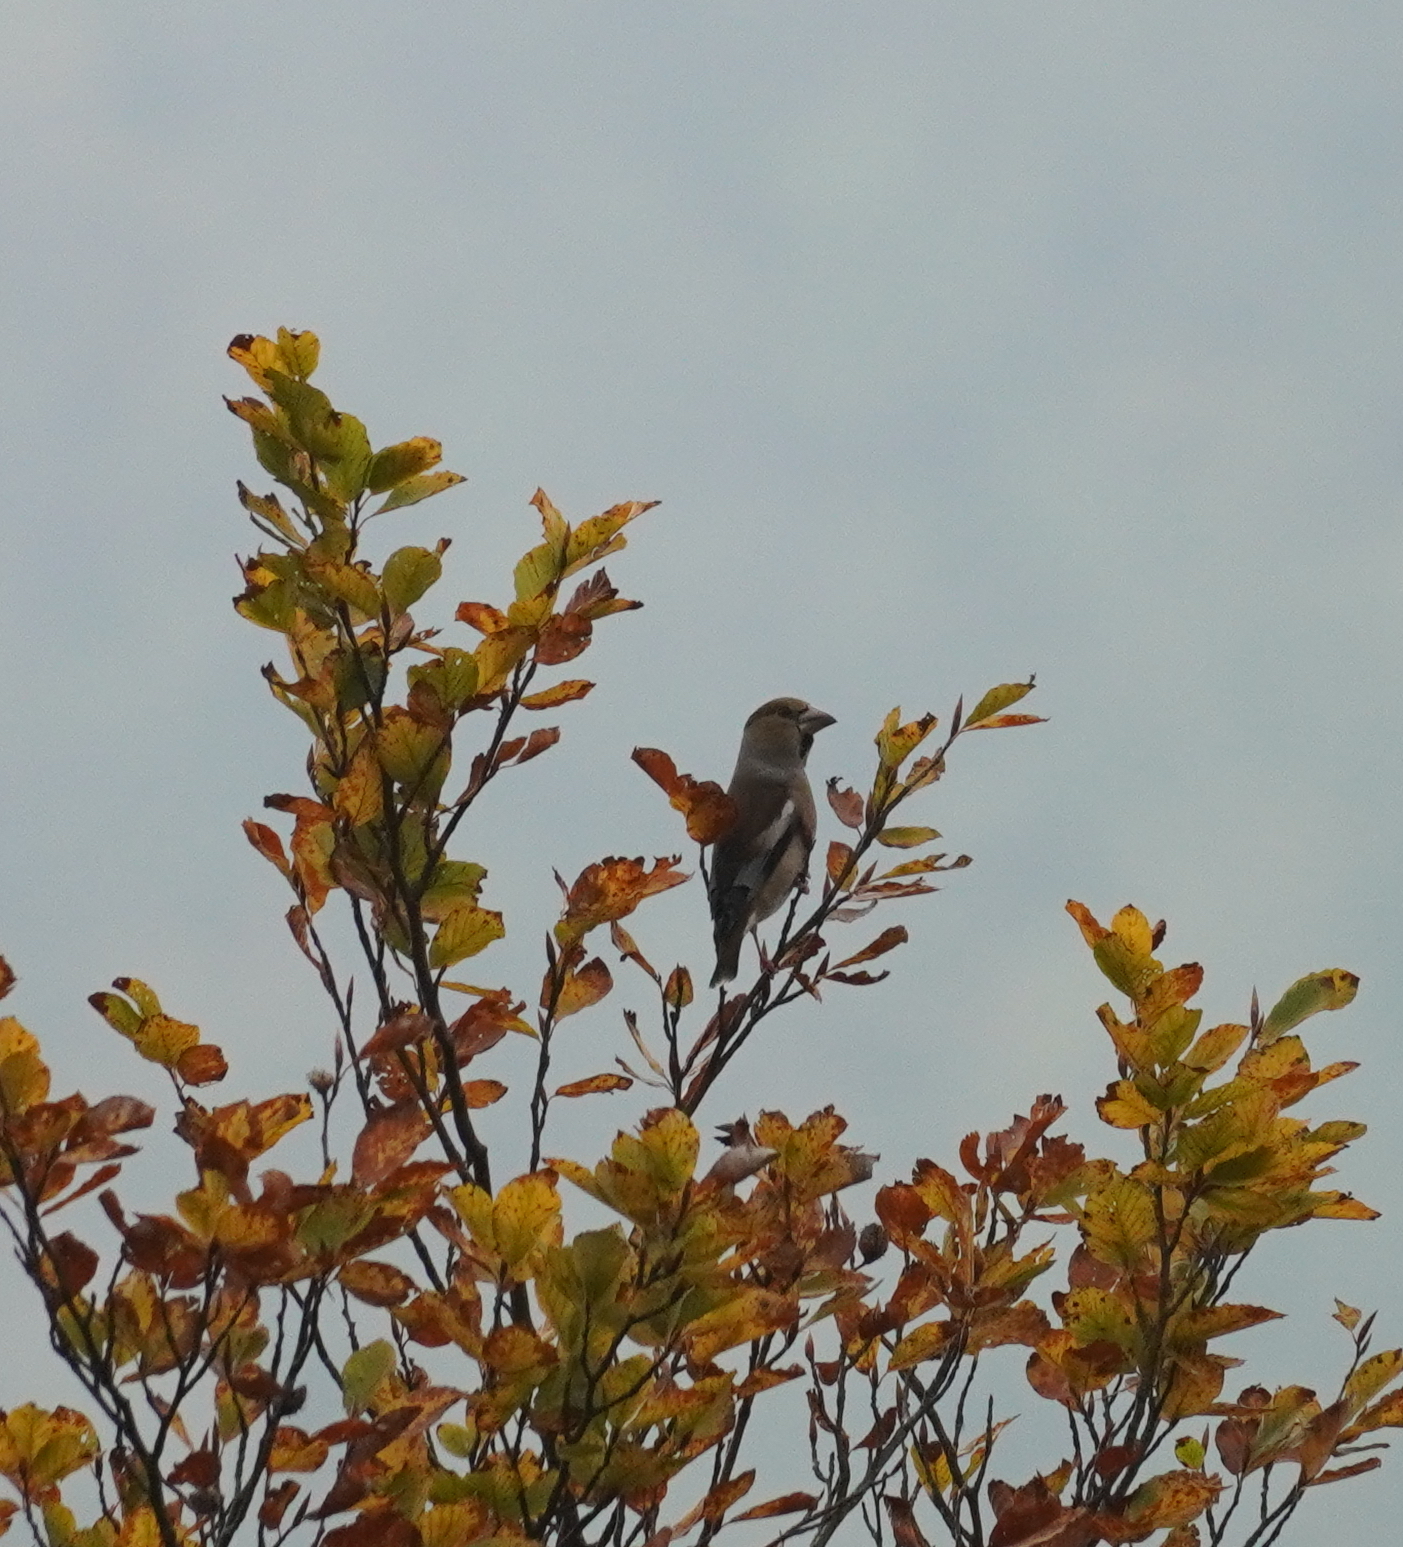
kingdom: Animalia
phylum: Chordata
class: Aves
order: Passeriformes
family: Fringillidae
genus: Coccothraustes
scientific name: Coccothraustes coccothraustes
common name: Hawfinch
